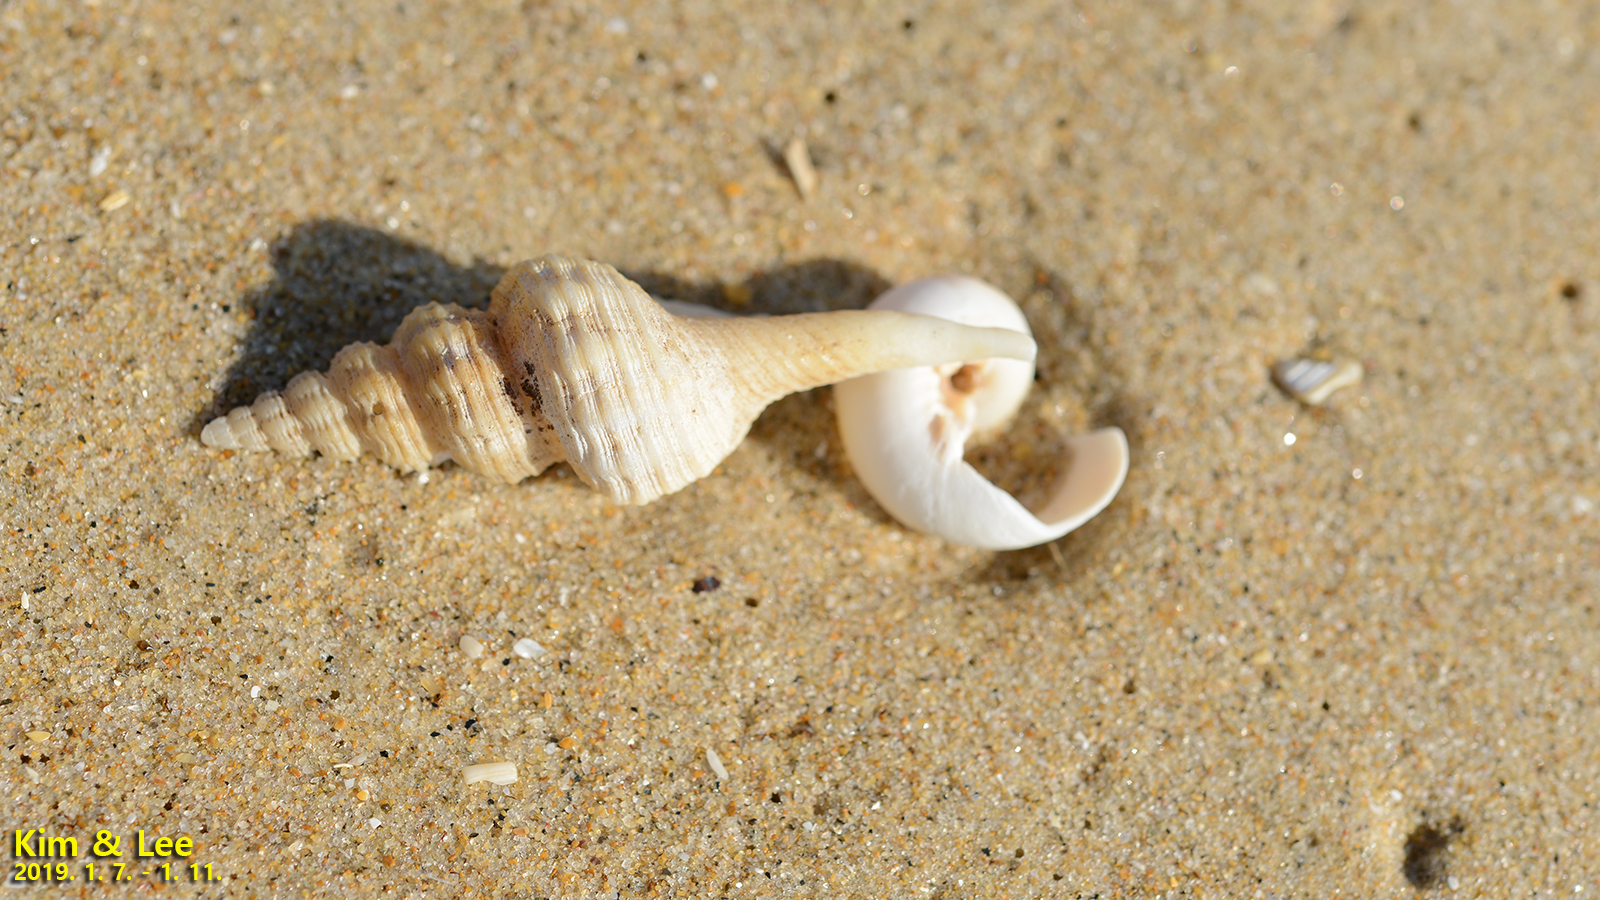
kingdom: Animalia
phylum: Mollusca
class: Gastropoda
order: Neogastropoda
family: Fasciolariidae
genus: Fusinus
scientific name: Fusinus ferrugineus
